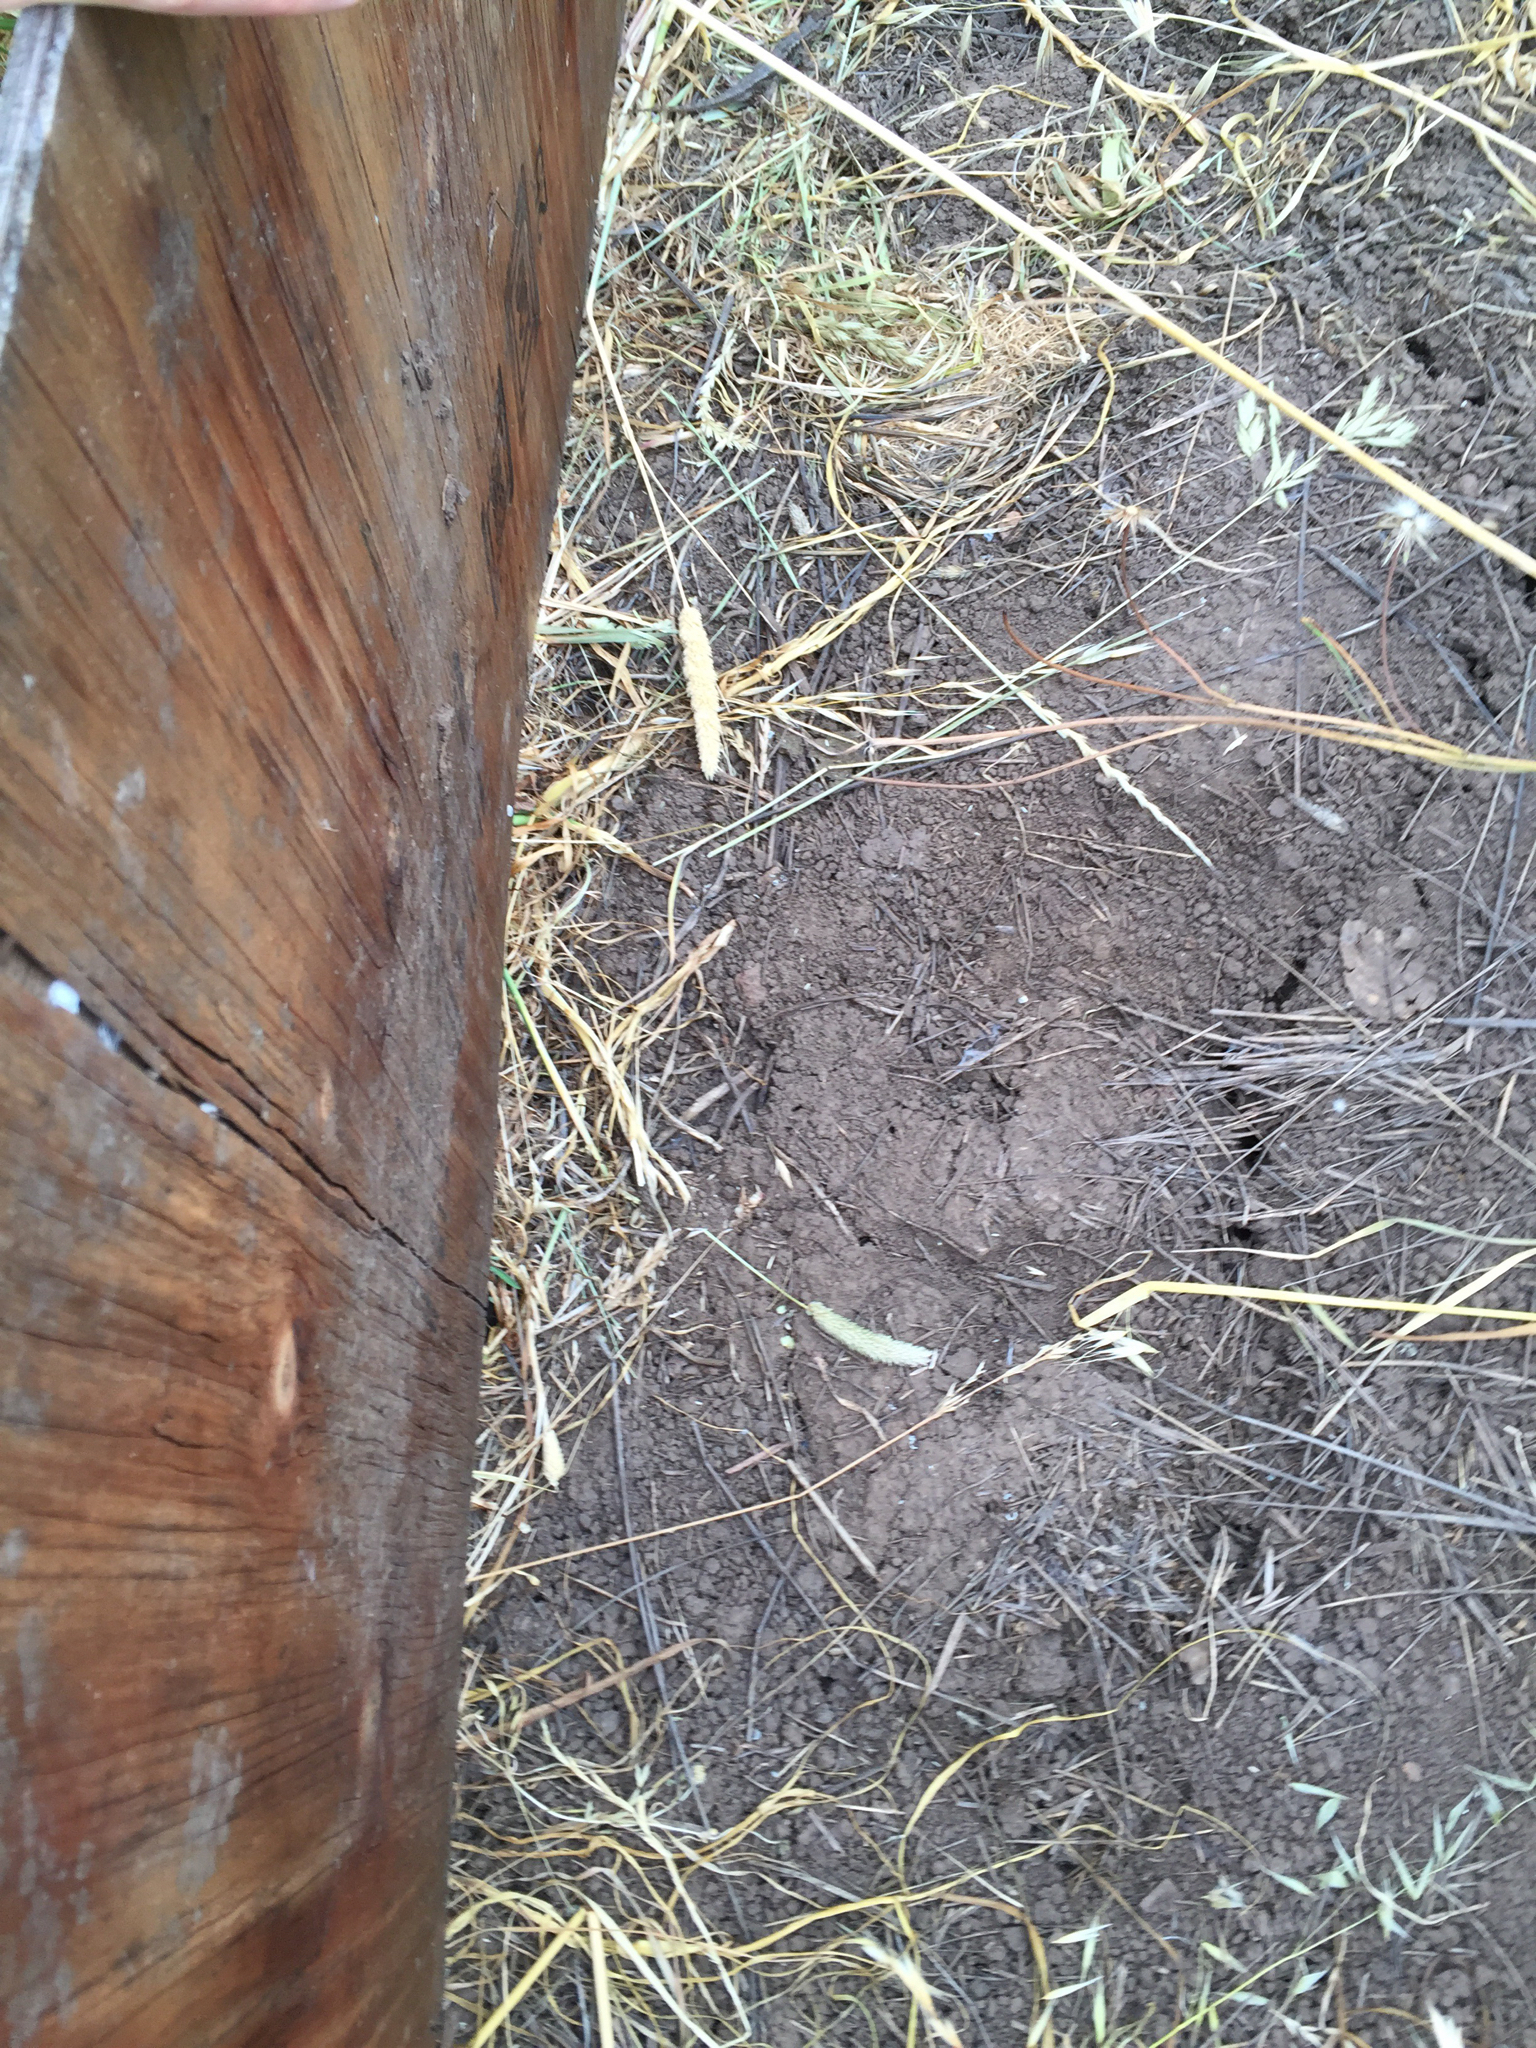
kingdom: Animalia
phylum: Chordata
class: Squamata
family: Phrynosomatidae
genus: Sceloporus
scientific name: Sceloporus occidentalis
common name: Western fence lizard
